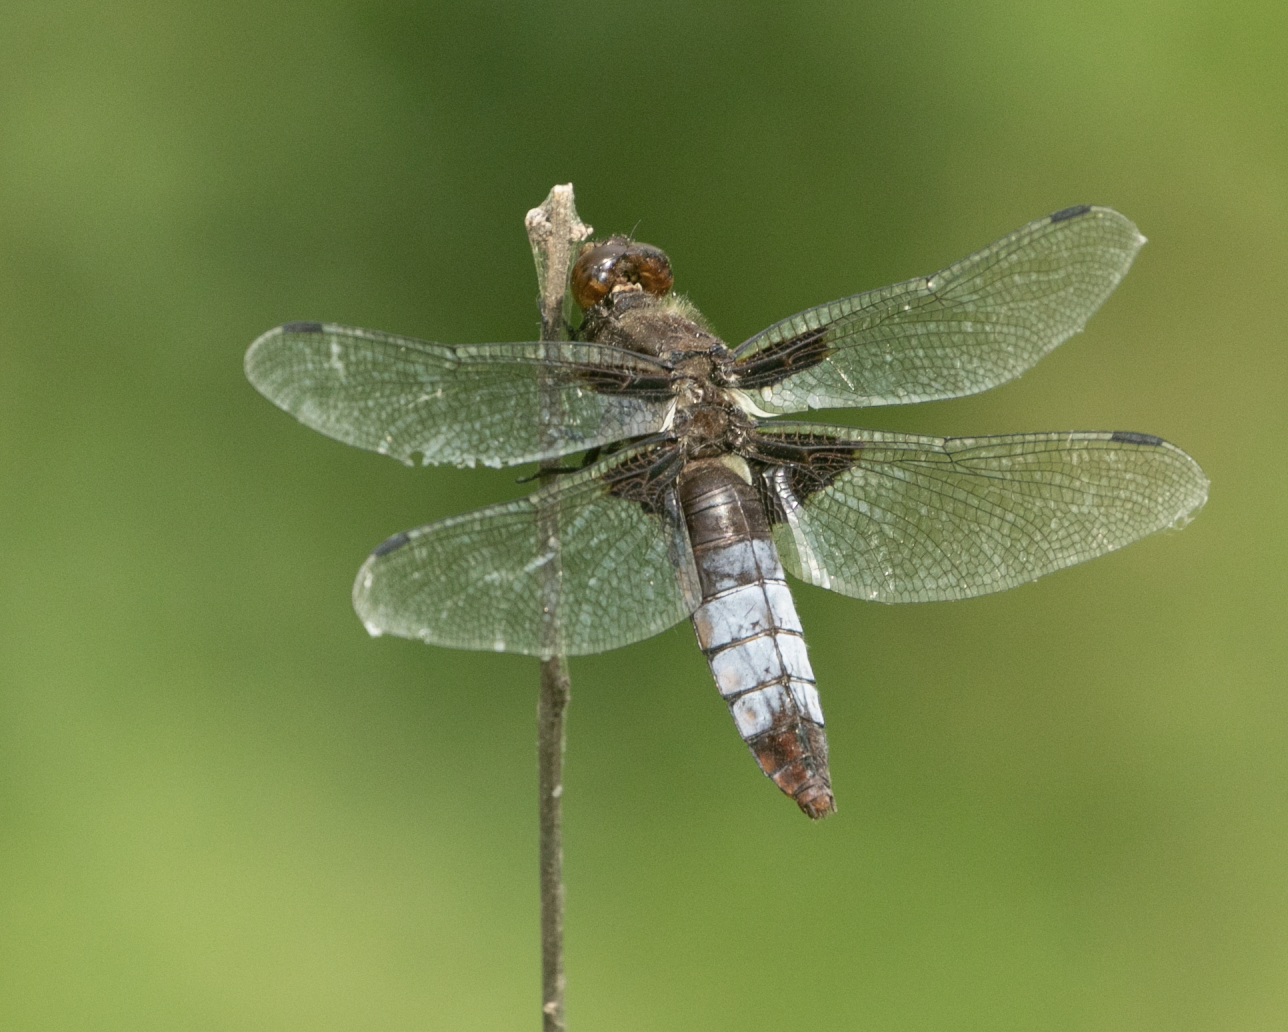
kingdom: Animalia
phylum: Arthropoda
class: Insecta
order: Odonata
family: Libellulidae
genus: Libellula
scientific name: Libellula depressa
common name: Broad-bodied chaser
